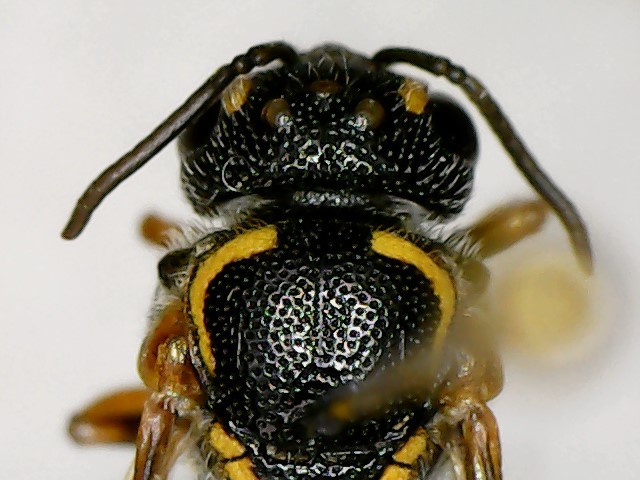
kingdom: Animalia
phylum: Arthropoda
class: Insecta
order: Hymenoptera
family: Megachilidae
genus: Stelis
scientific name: Stelis louisae
